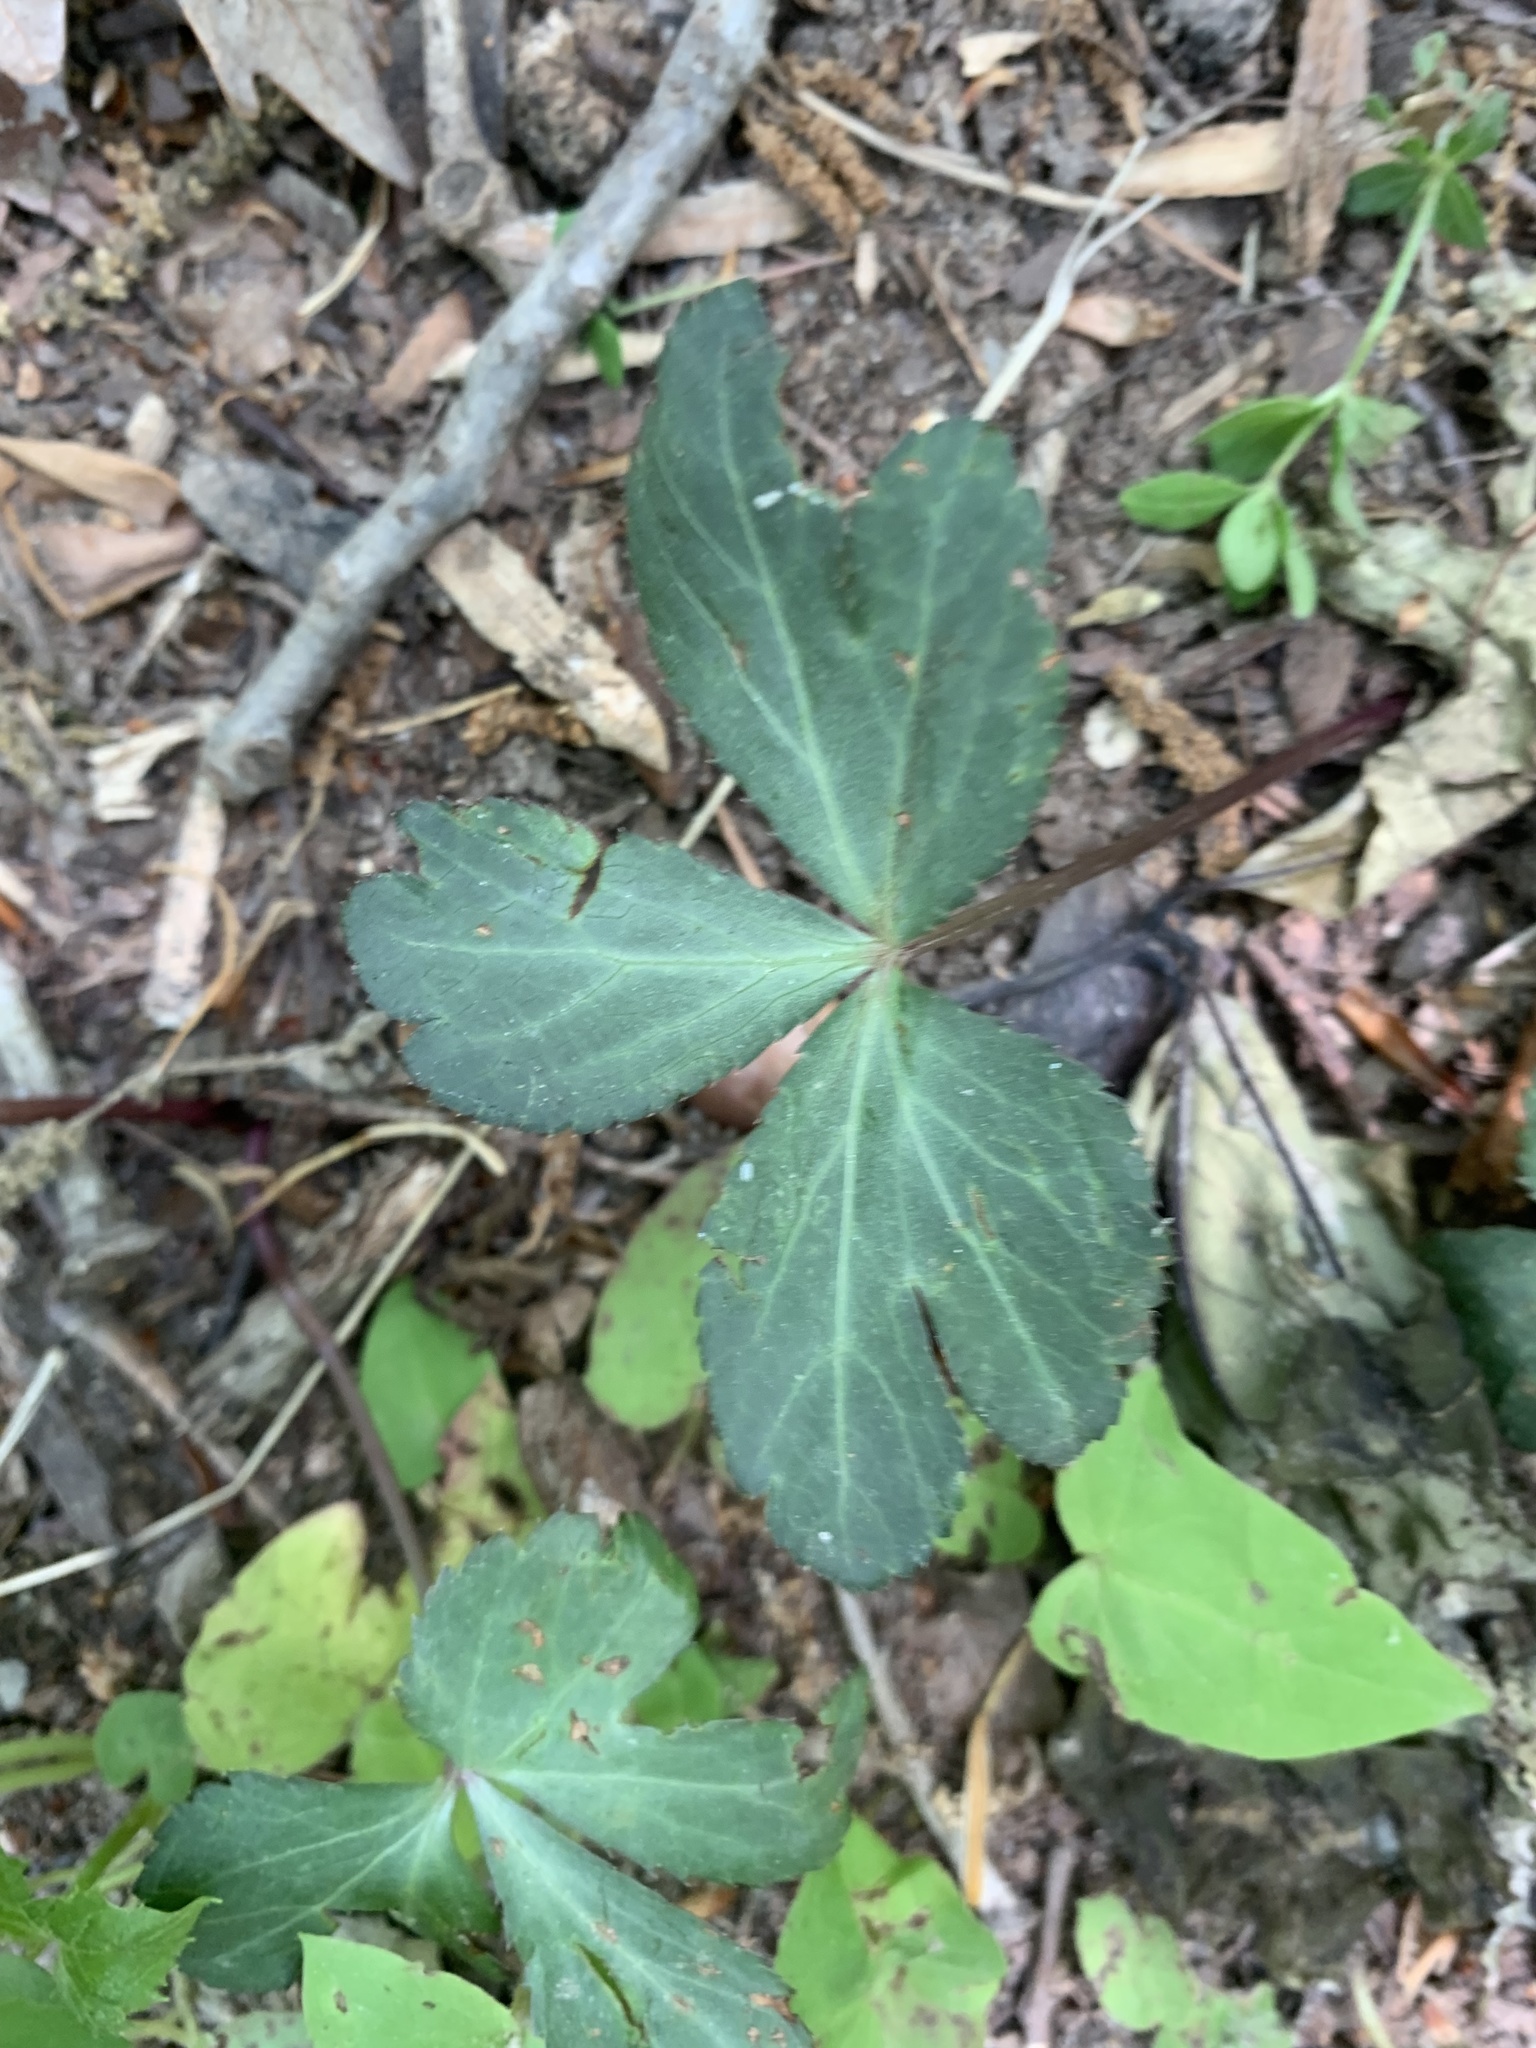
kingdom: Plantae
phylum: Tracheophyta
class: Magnoliopsida
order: Apiales
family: Apiaceae
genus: Sanicula
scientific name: Sanicula smallii
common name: Small's black snakeroot
